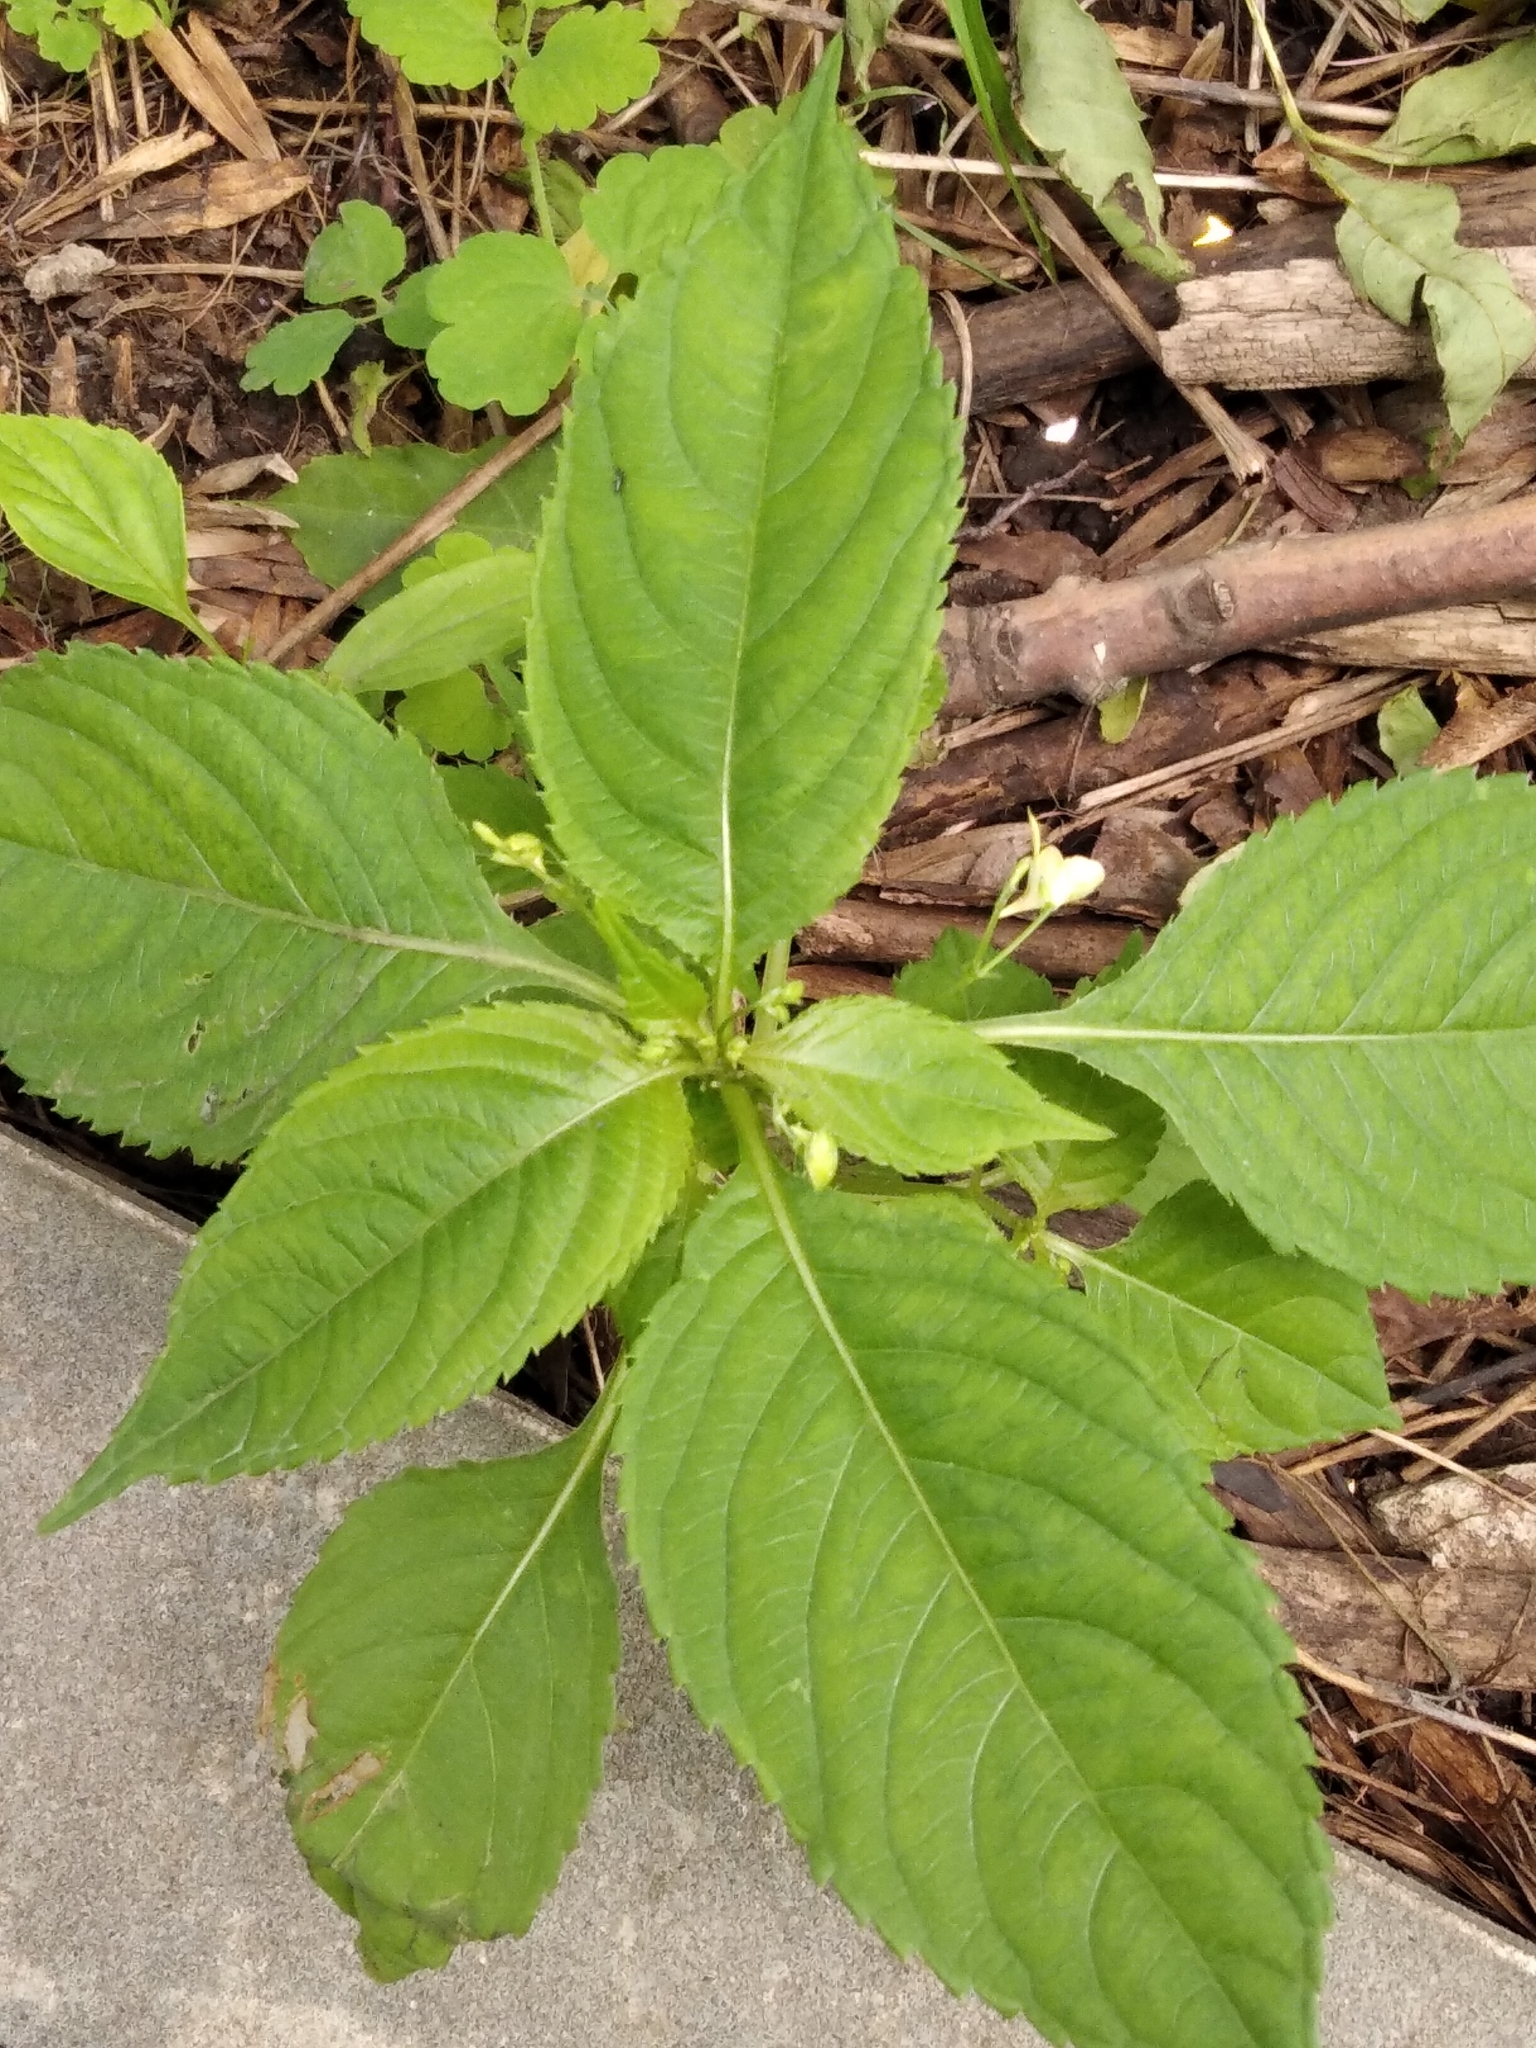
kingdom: Plantae
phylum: Tracheophyta
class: Magnoliopsida
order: Ericales
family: Balsaminaceae
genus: Impatiens
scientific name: Impatiens parviflora
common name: Small balsam
